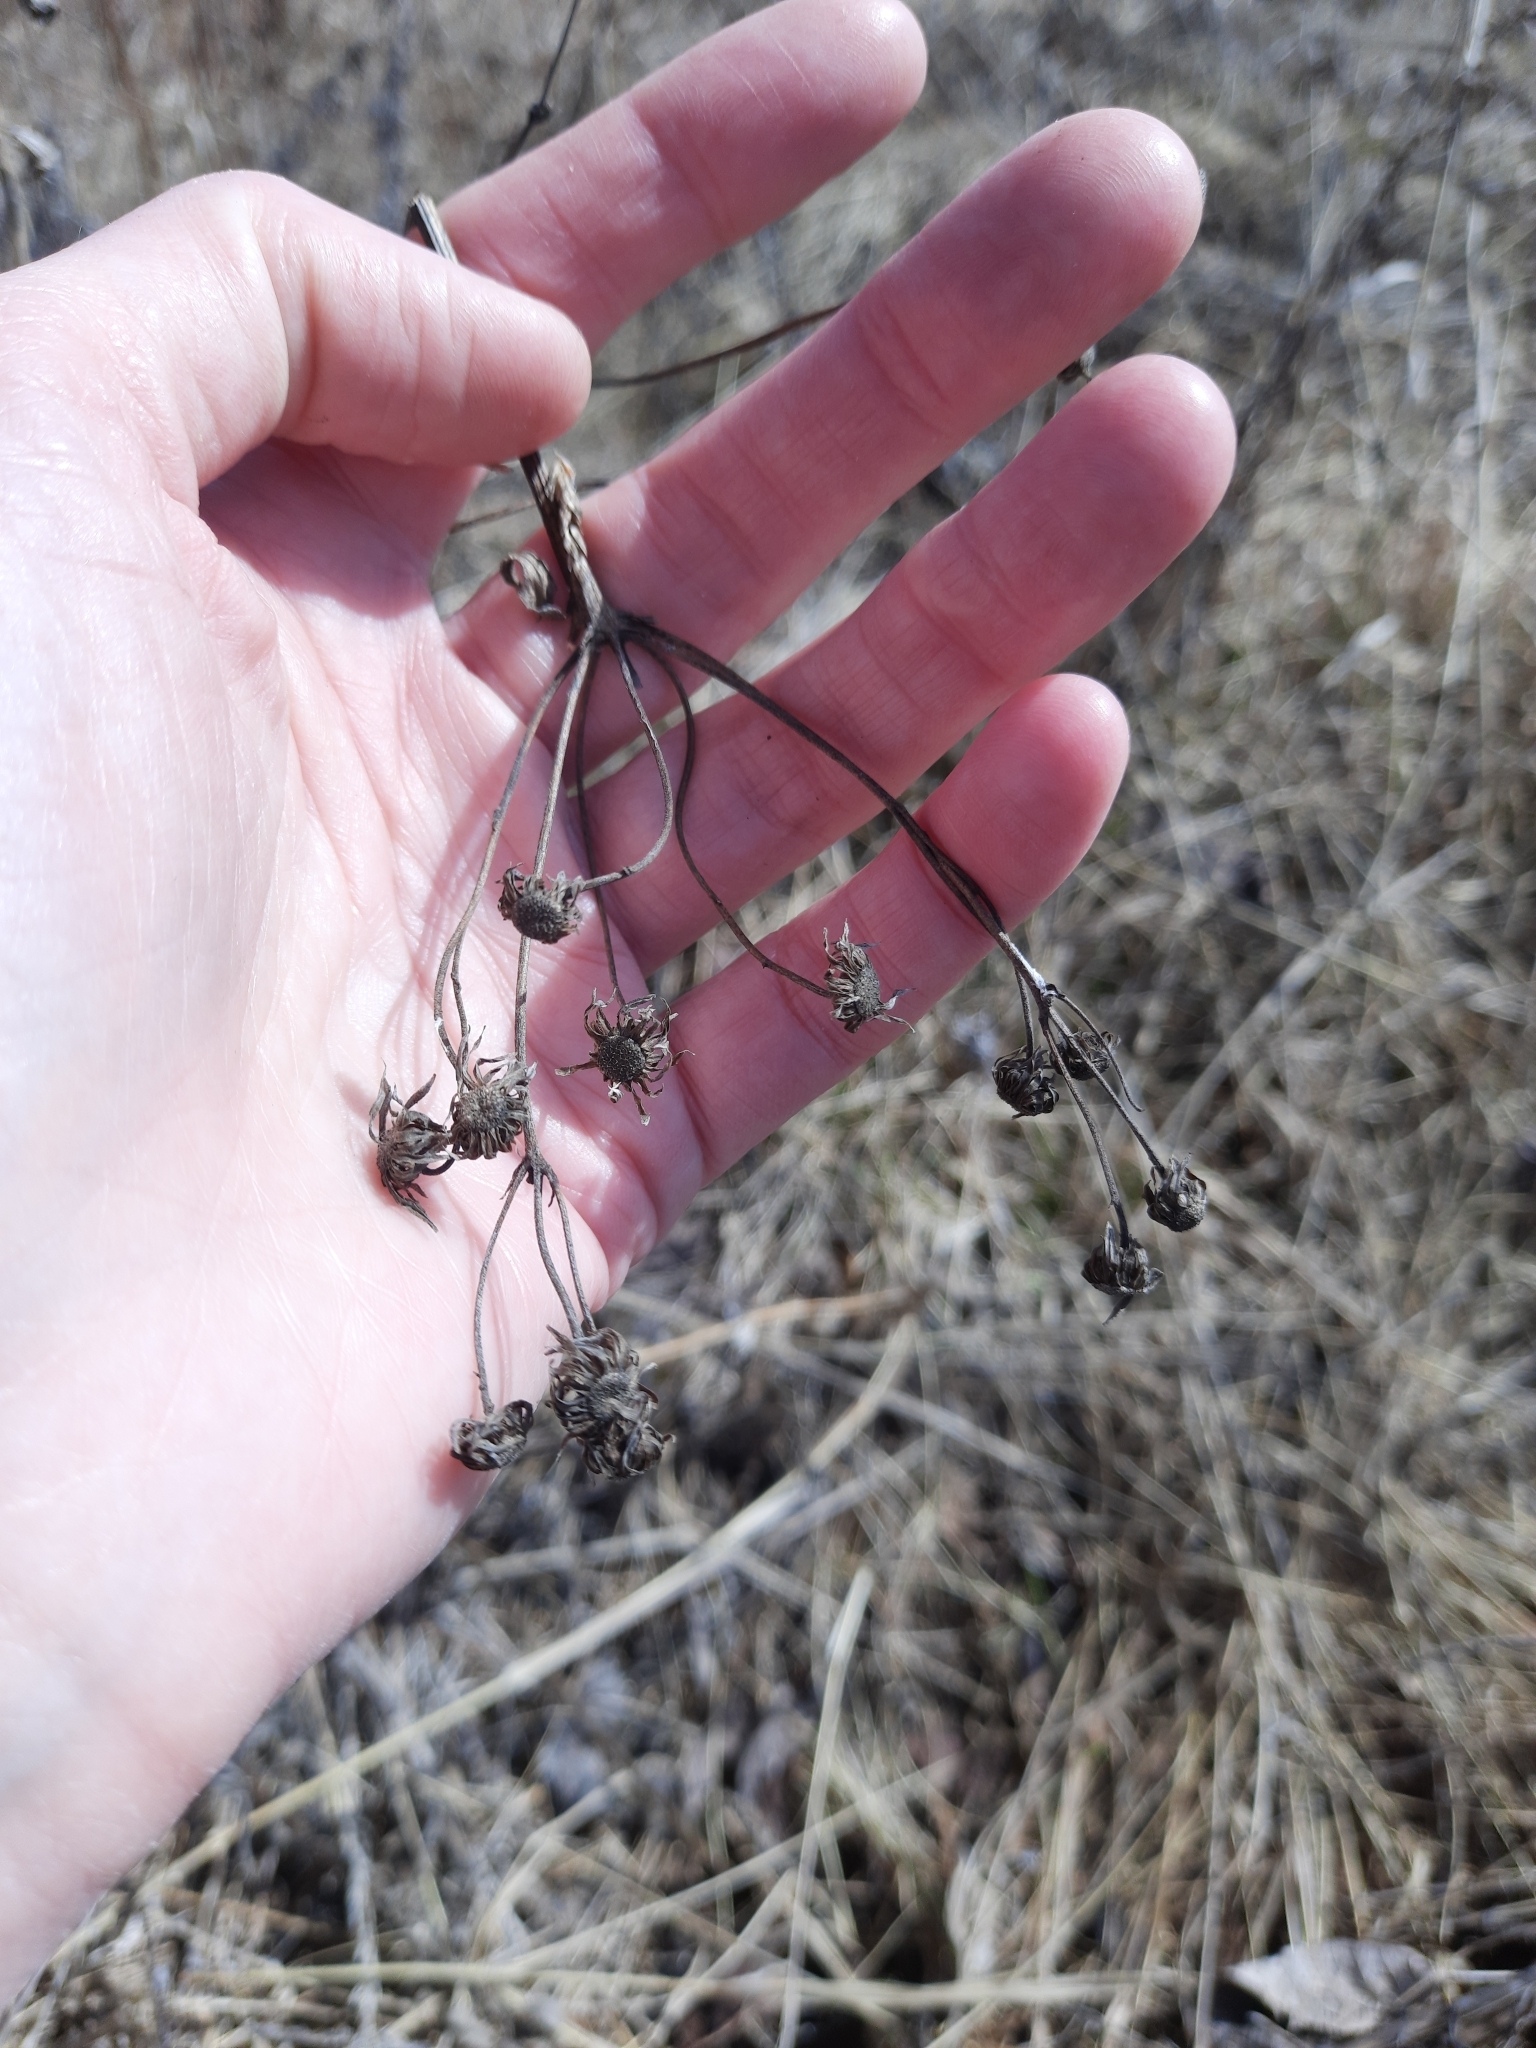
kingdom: Plantae
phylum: Tracheophyta
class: Magnoliopsida
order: Asterales
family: Asteraceae
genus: Hieracium
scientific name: Hieracium umbellatum
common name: Northern hawkweed
